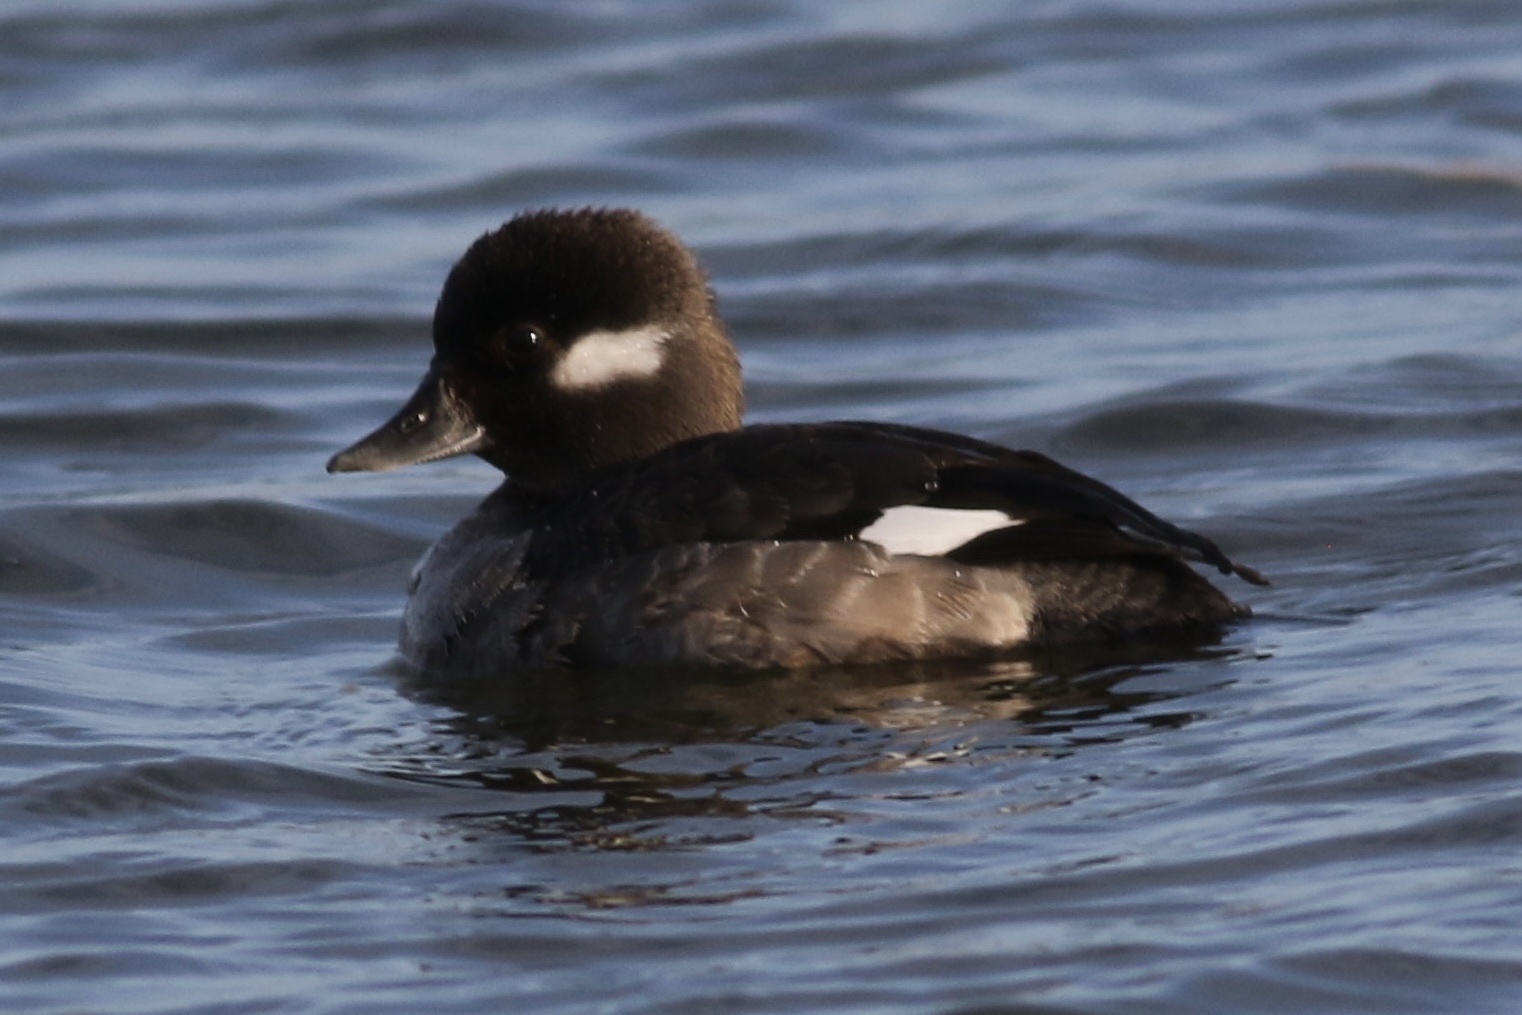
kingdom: Animalia
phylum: Chordata
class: Aves
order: Anseriformes
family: Anatidae
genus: Bucephala
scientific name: Bucephala albeola
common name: Bufflehead
